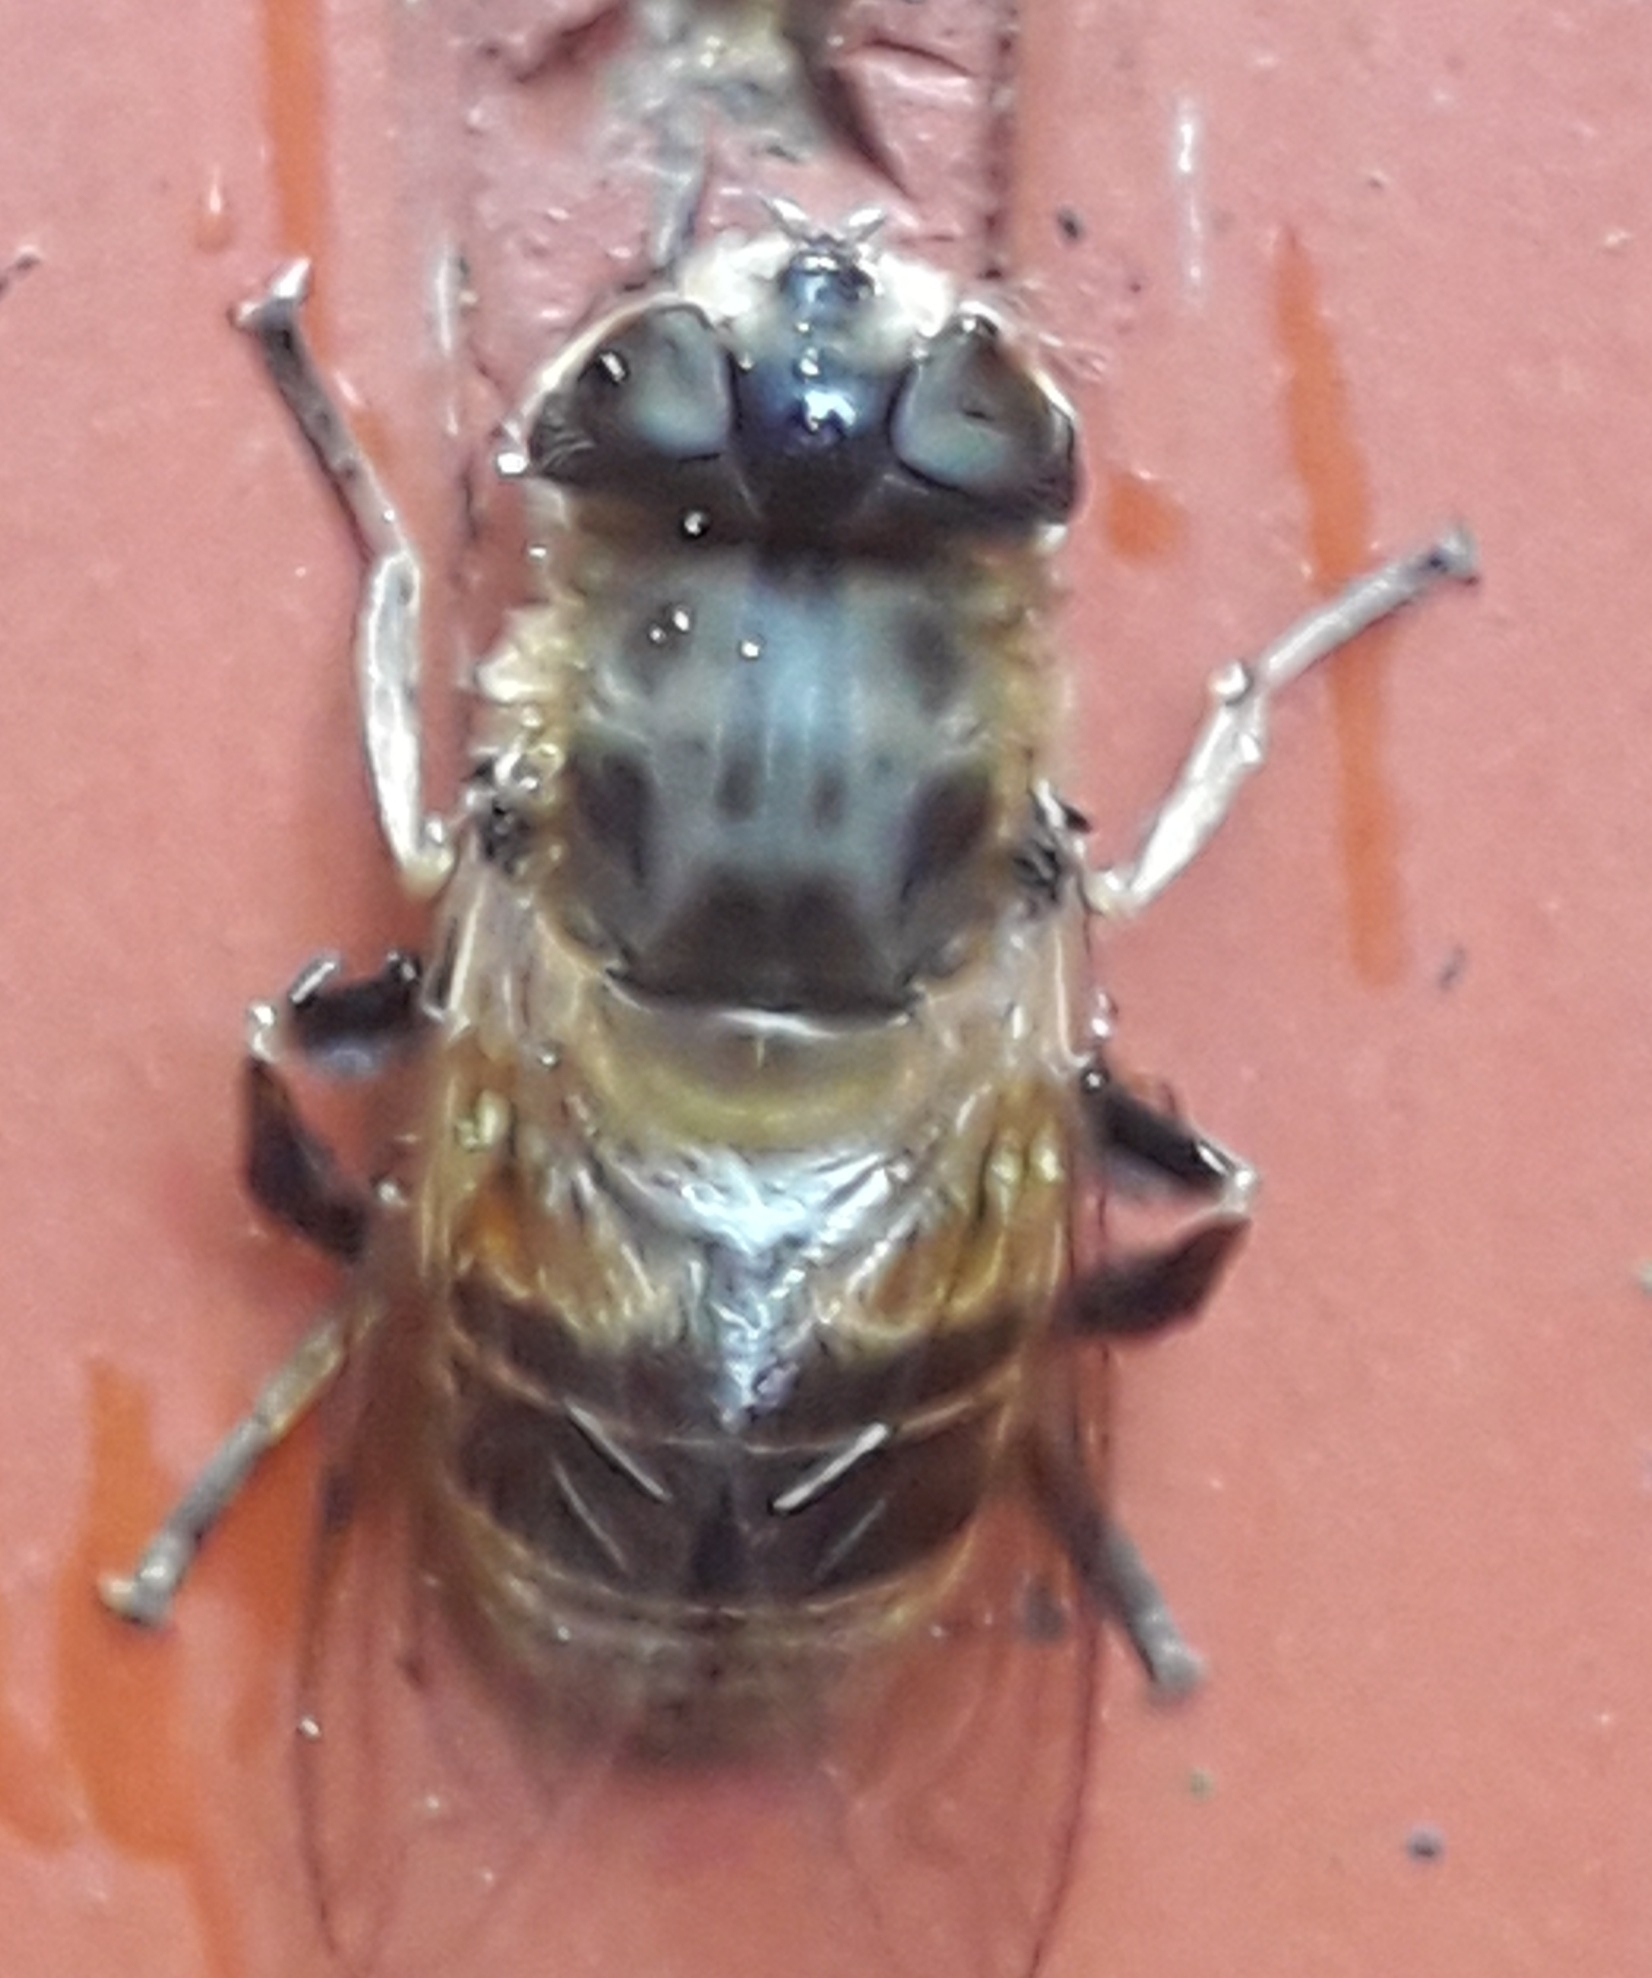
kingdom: Animalia
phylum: Arthropoda
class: Insecta
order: Diptera
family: Syrphidae
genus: Eristalis
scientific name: Eristalis tenax
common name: Drone fly
